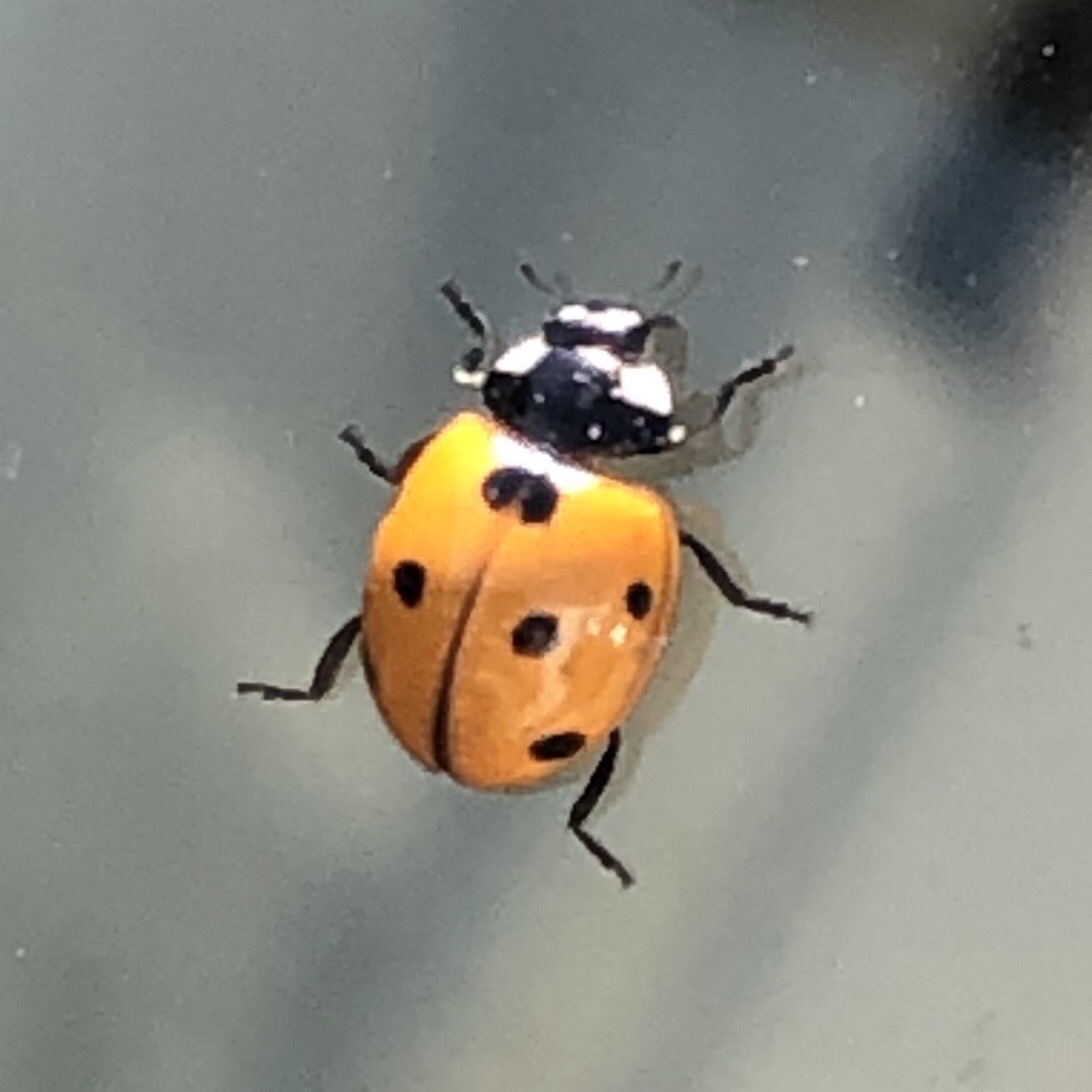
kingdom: Animalia
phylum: Arthropoda
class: Insecta
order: Coleoptera
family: Coccinellidae
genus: Coccinella
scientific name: Coccinella septempunctata
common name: Sevenspotted lady beetle
